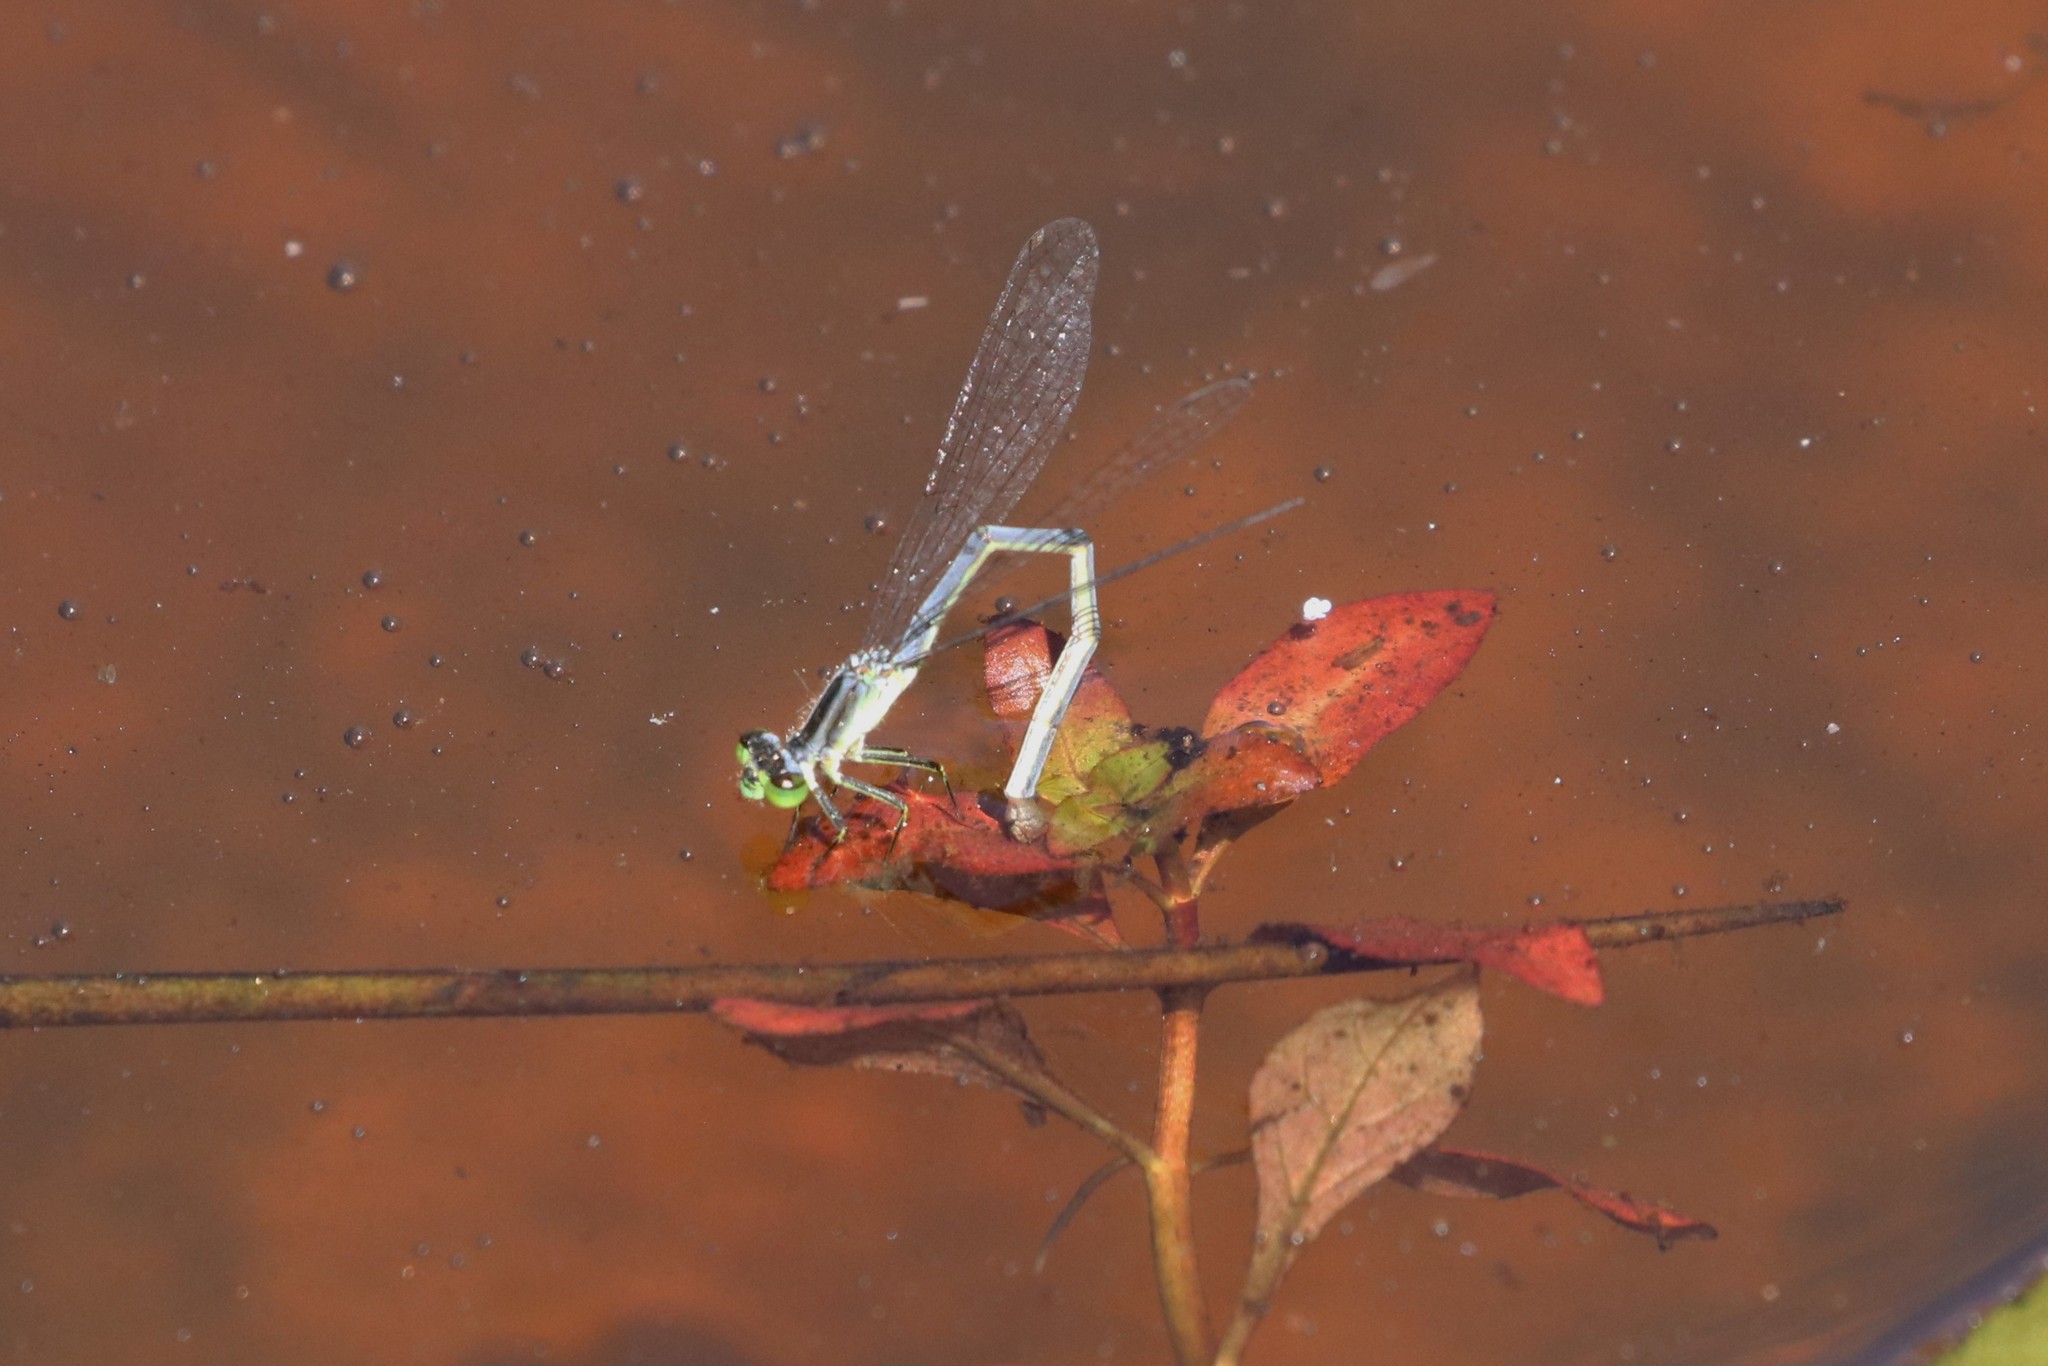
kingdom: Animalia
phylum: Arthropoda
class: Insecta
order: Odonata
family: Coenagrionidae
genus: Ischnura
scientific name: Ischnura verticalis
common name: Eastern forktail
